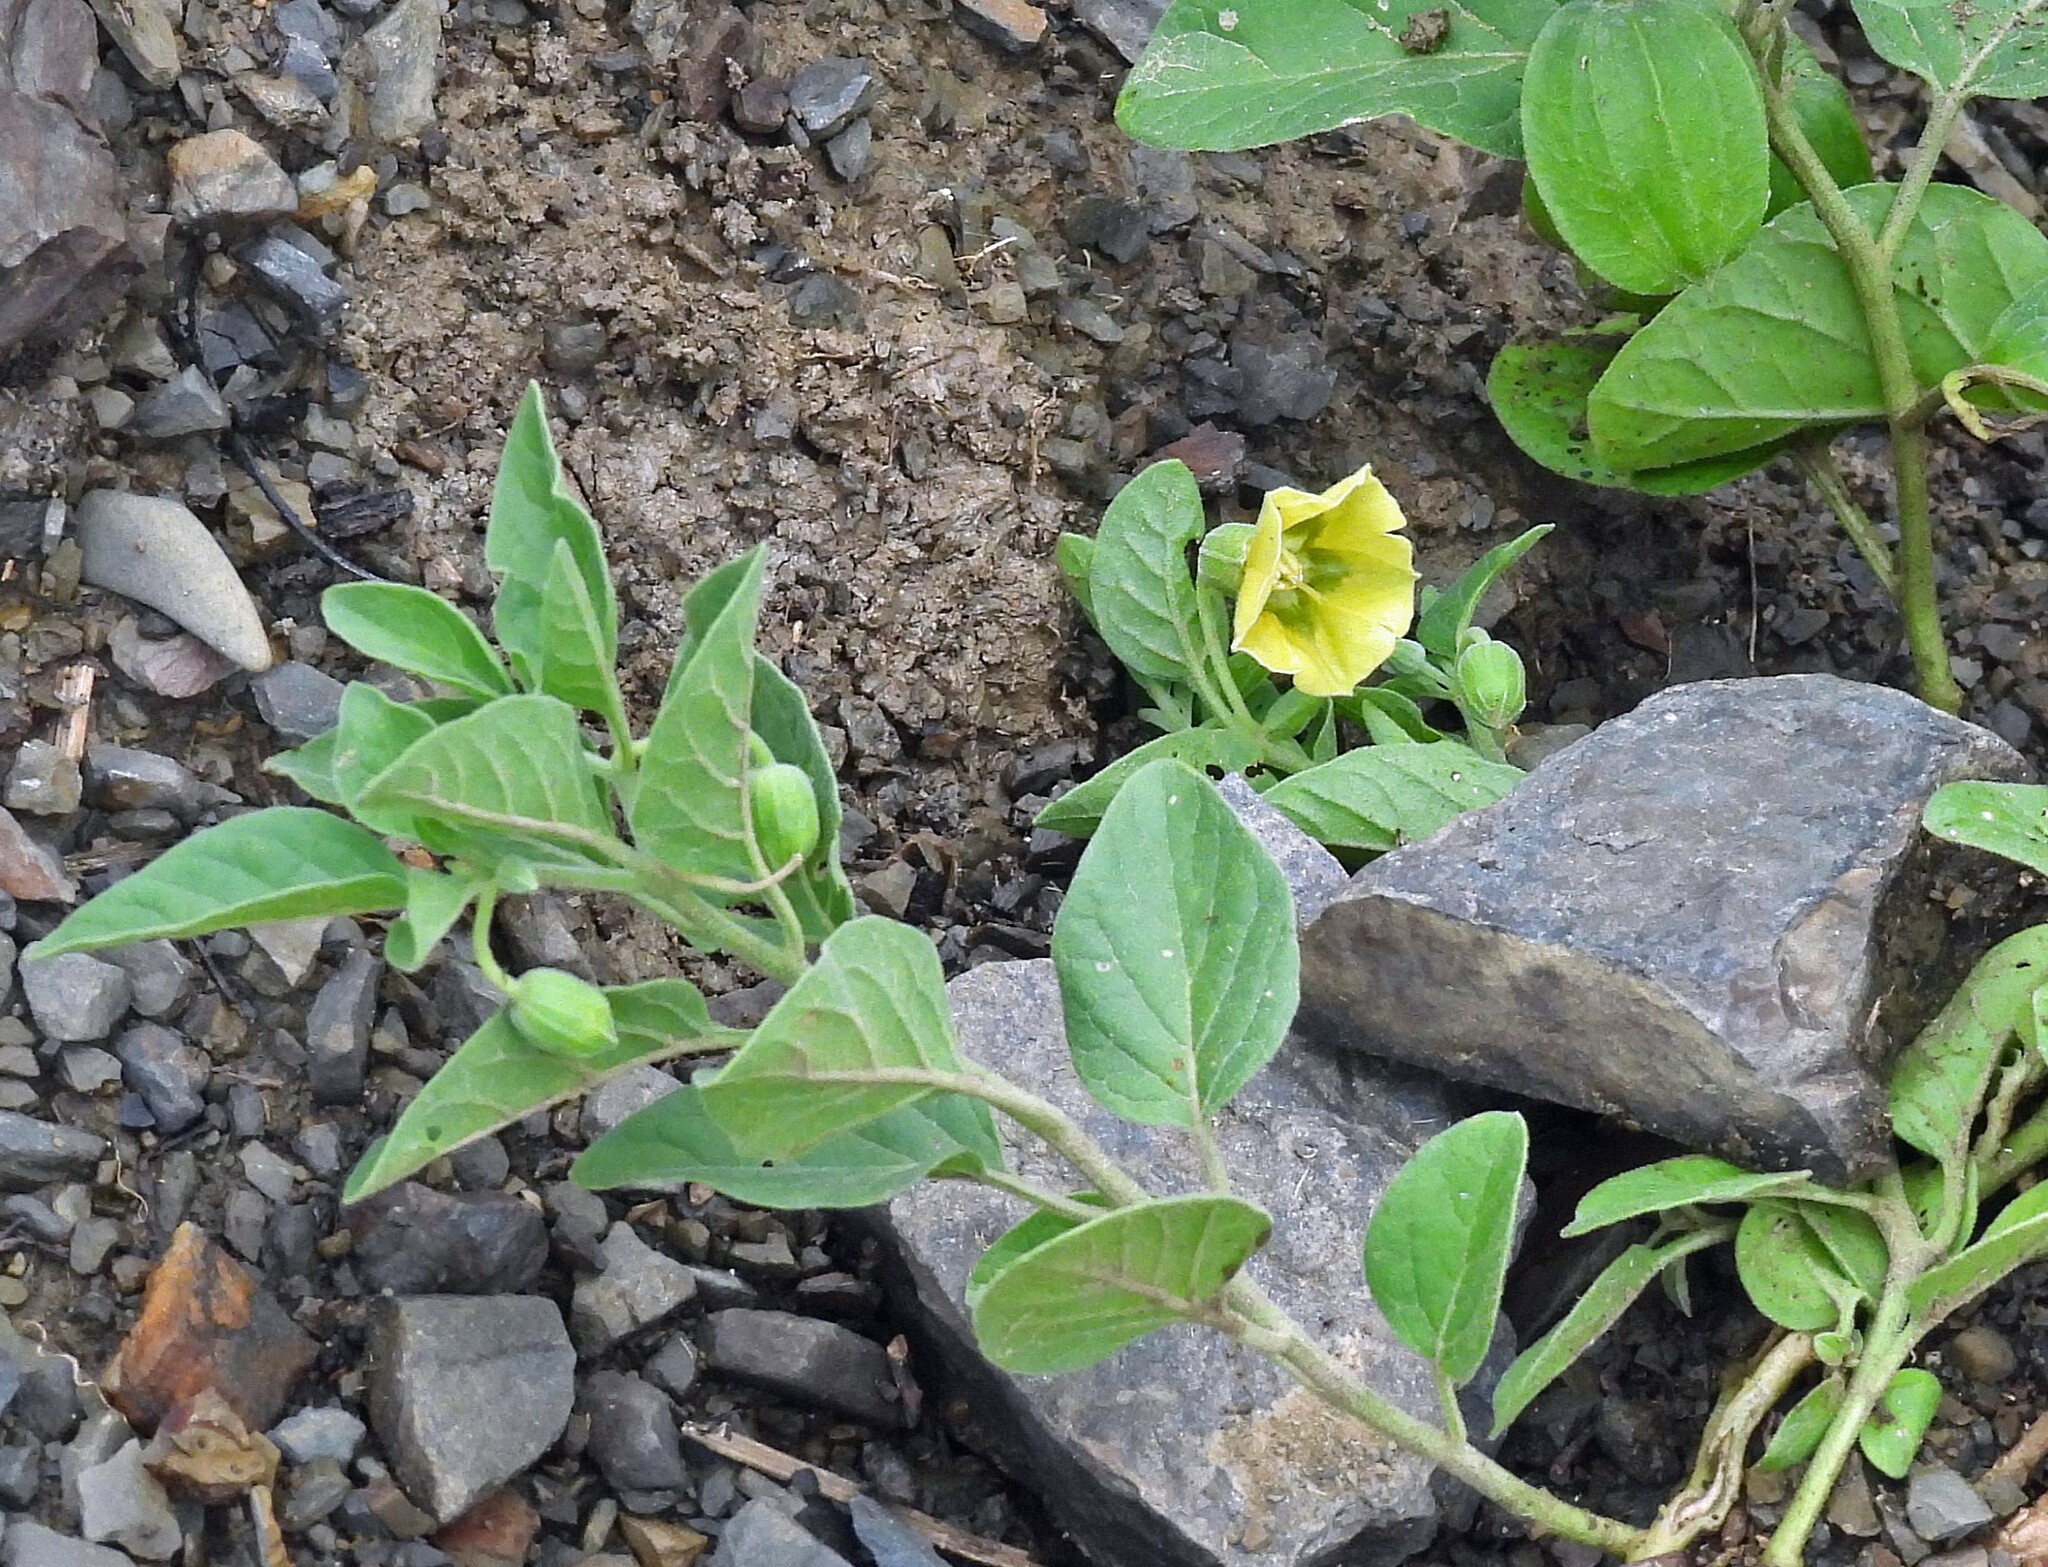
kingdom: Plantae
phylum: Tracheophyta
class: Magnoliopsida
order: Solanales
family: Solanaceae
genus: Physalis
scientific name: Physalis viscosa
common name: Stellate ground-cherry
